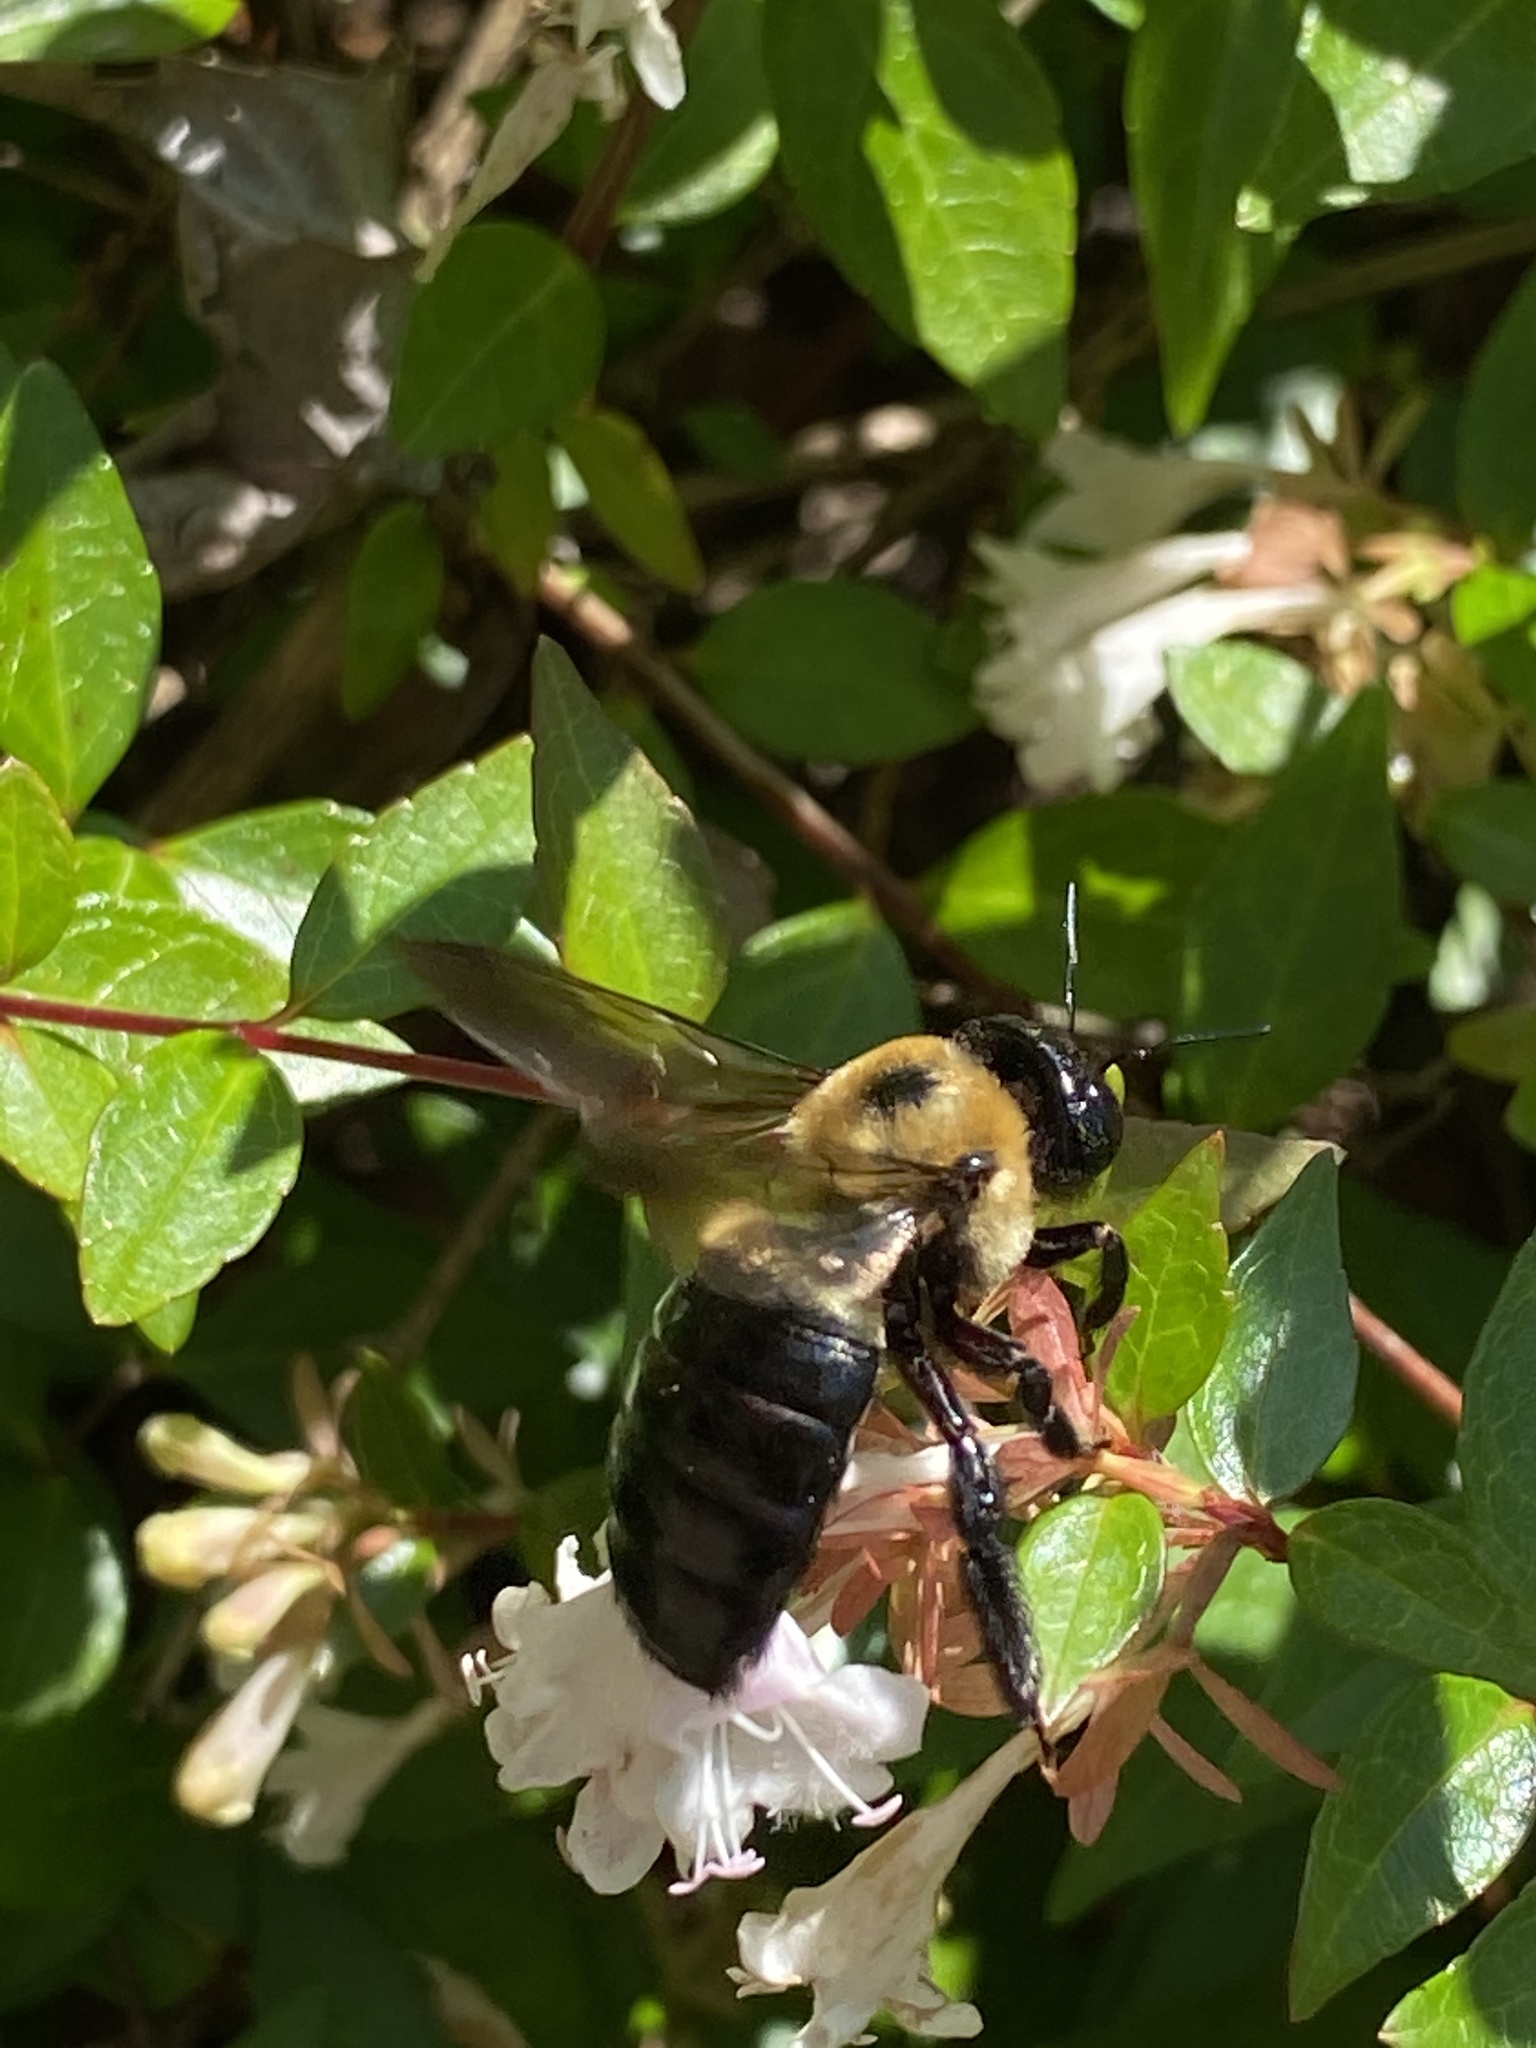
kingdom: Animalia
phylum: Arthropoda
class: Insecta
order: Hymenoptera
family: Apidae
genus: Xylocopa
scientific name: Xylocopa virginica
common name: Carpenter bee
